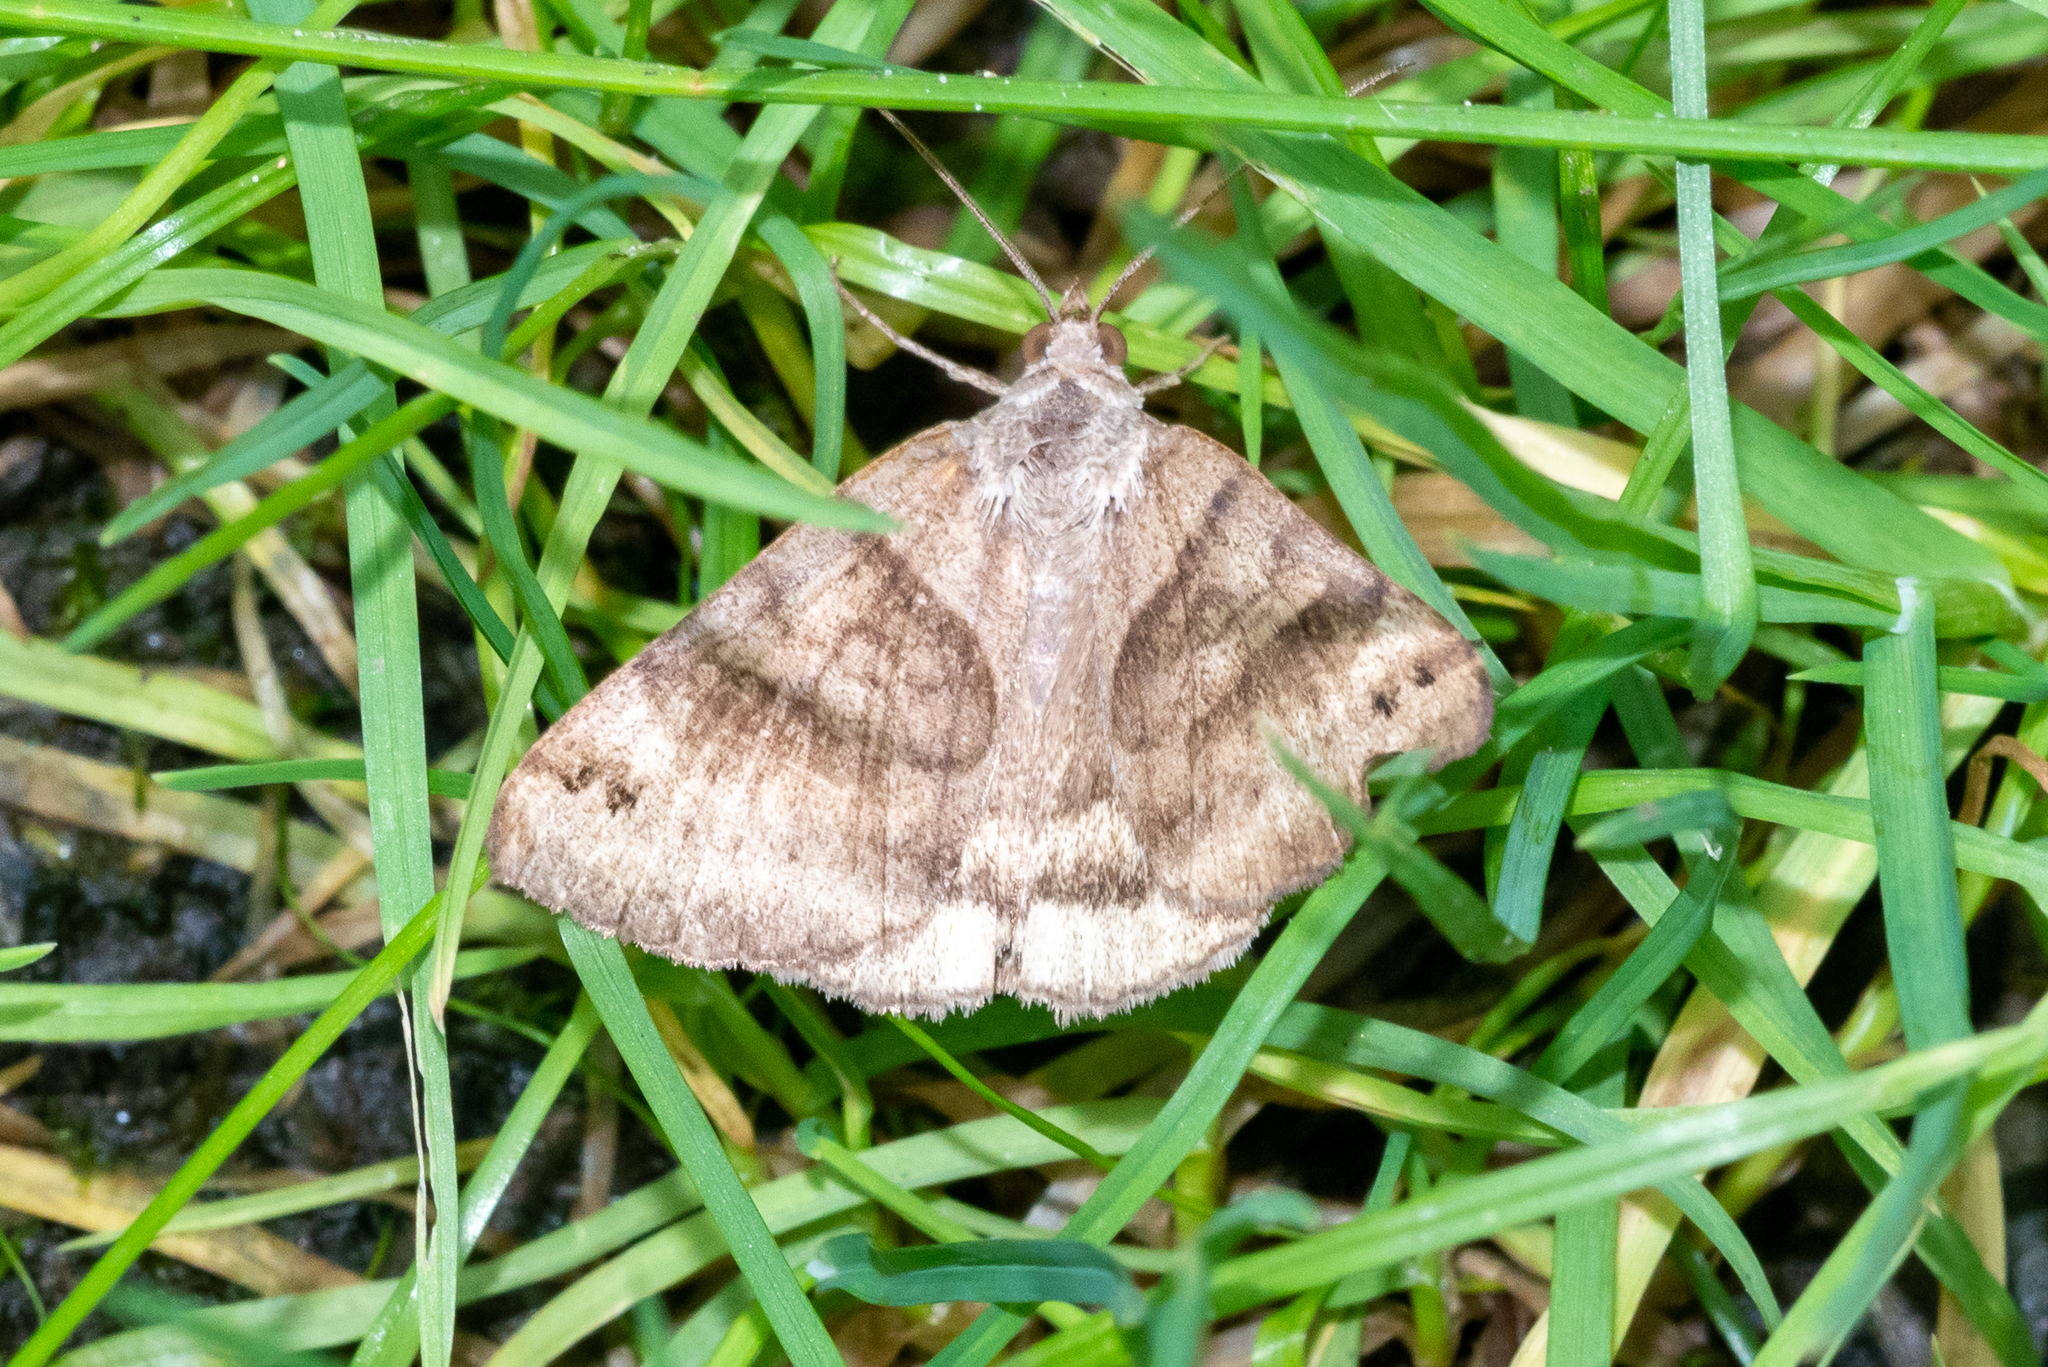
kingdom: Animalia
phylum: Arthropoda
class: Insecta
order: Lepidoptera
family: Erebidae
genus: Caenurgina
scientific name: Caenurgina crassiuscula
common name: Double-barred
